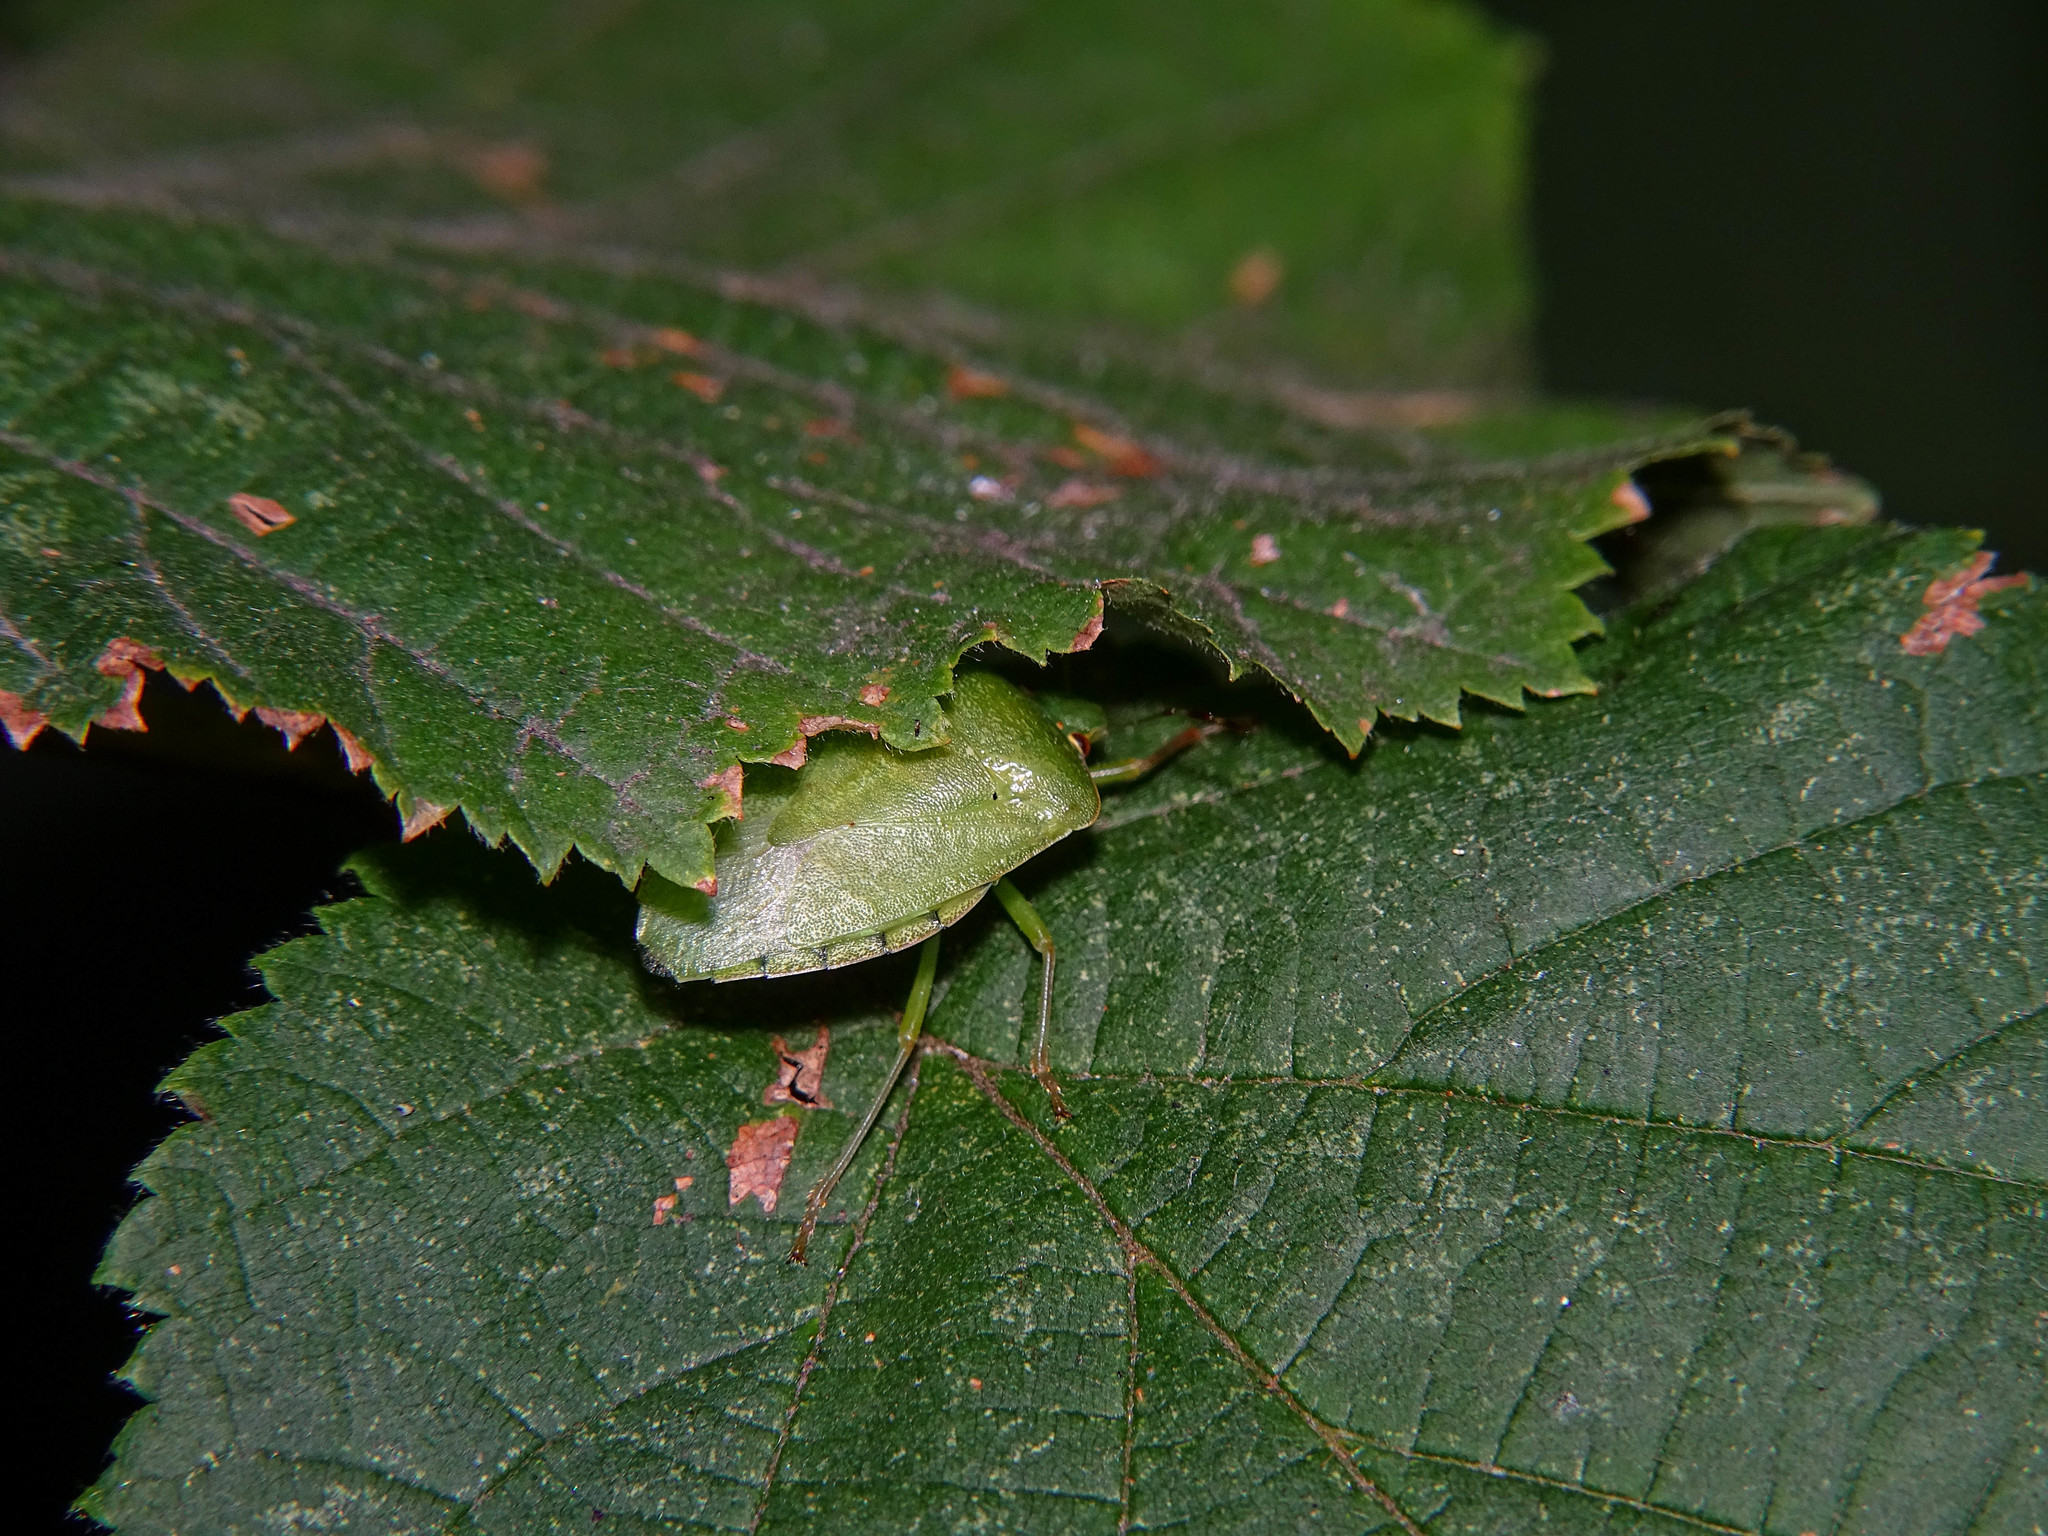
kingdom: Animalia
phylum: Arthropoda
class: Insecta
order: Hemiptera
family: Pentatomidae
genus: Nezara
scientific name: Nezara viridula
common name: Southern green stink bug
